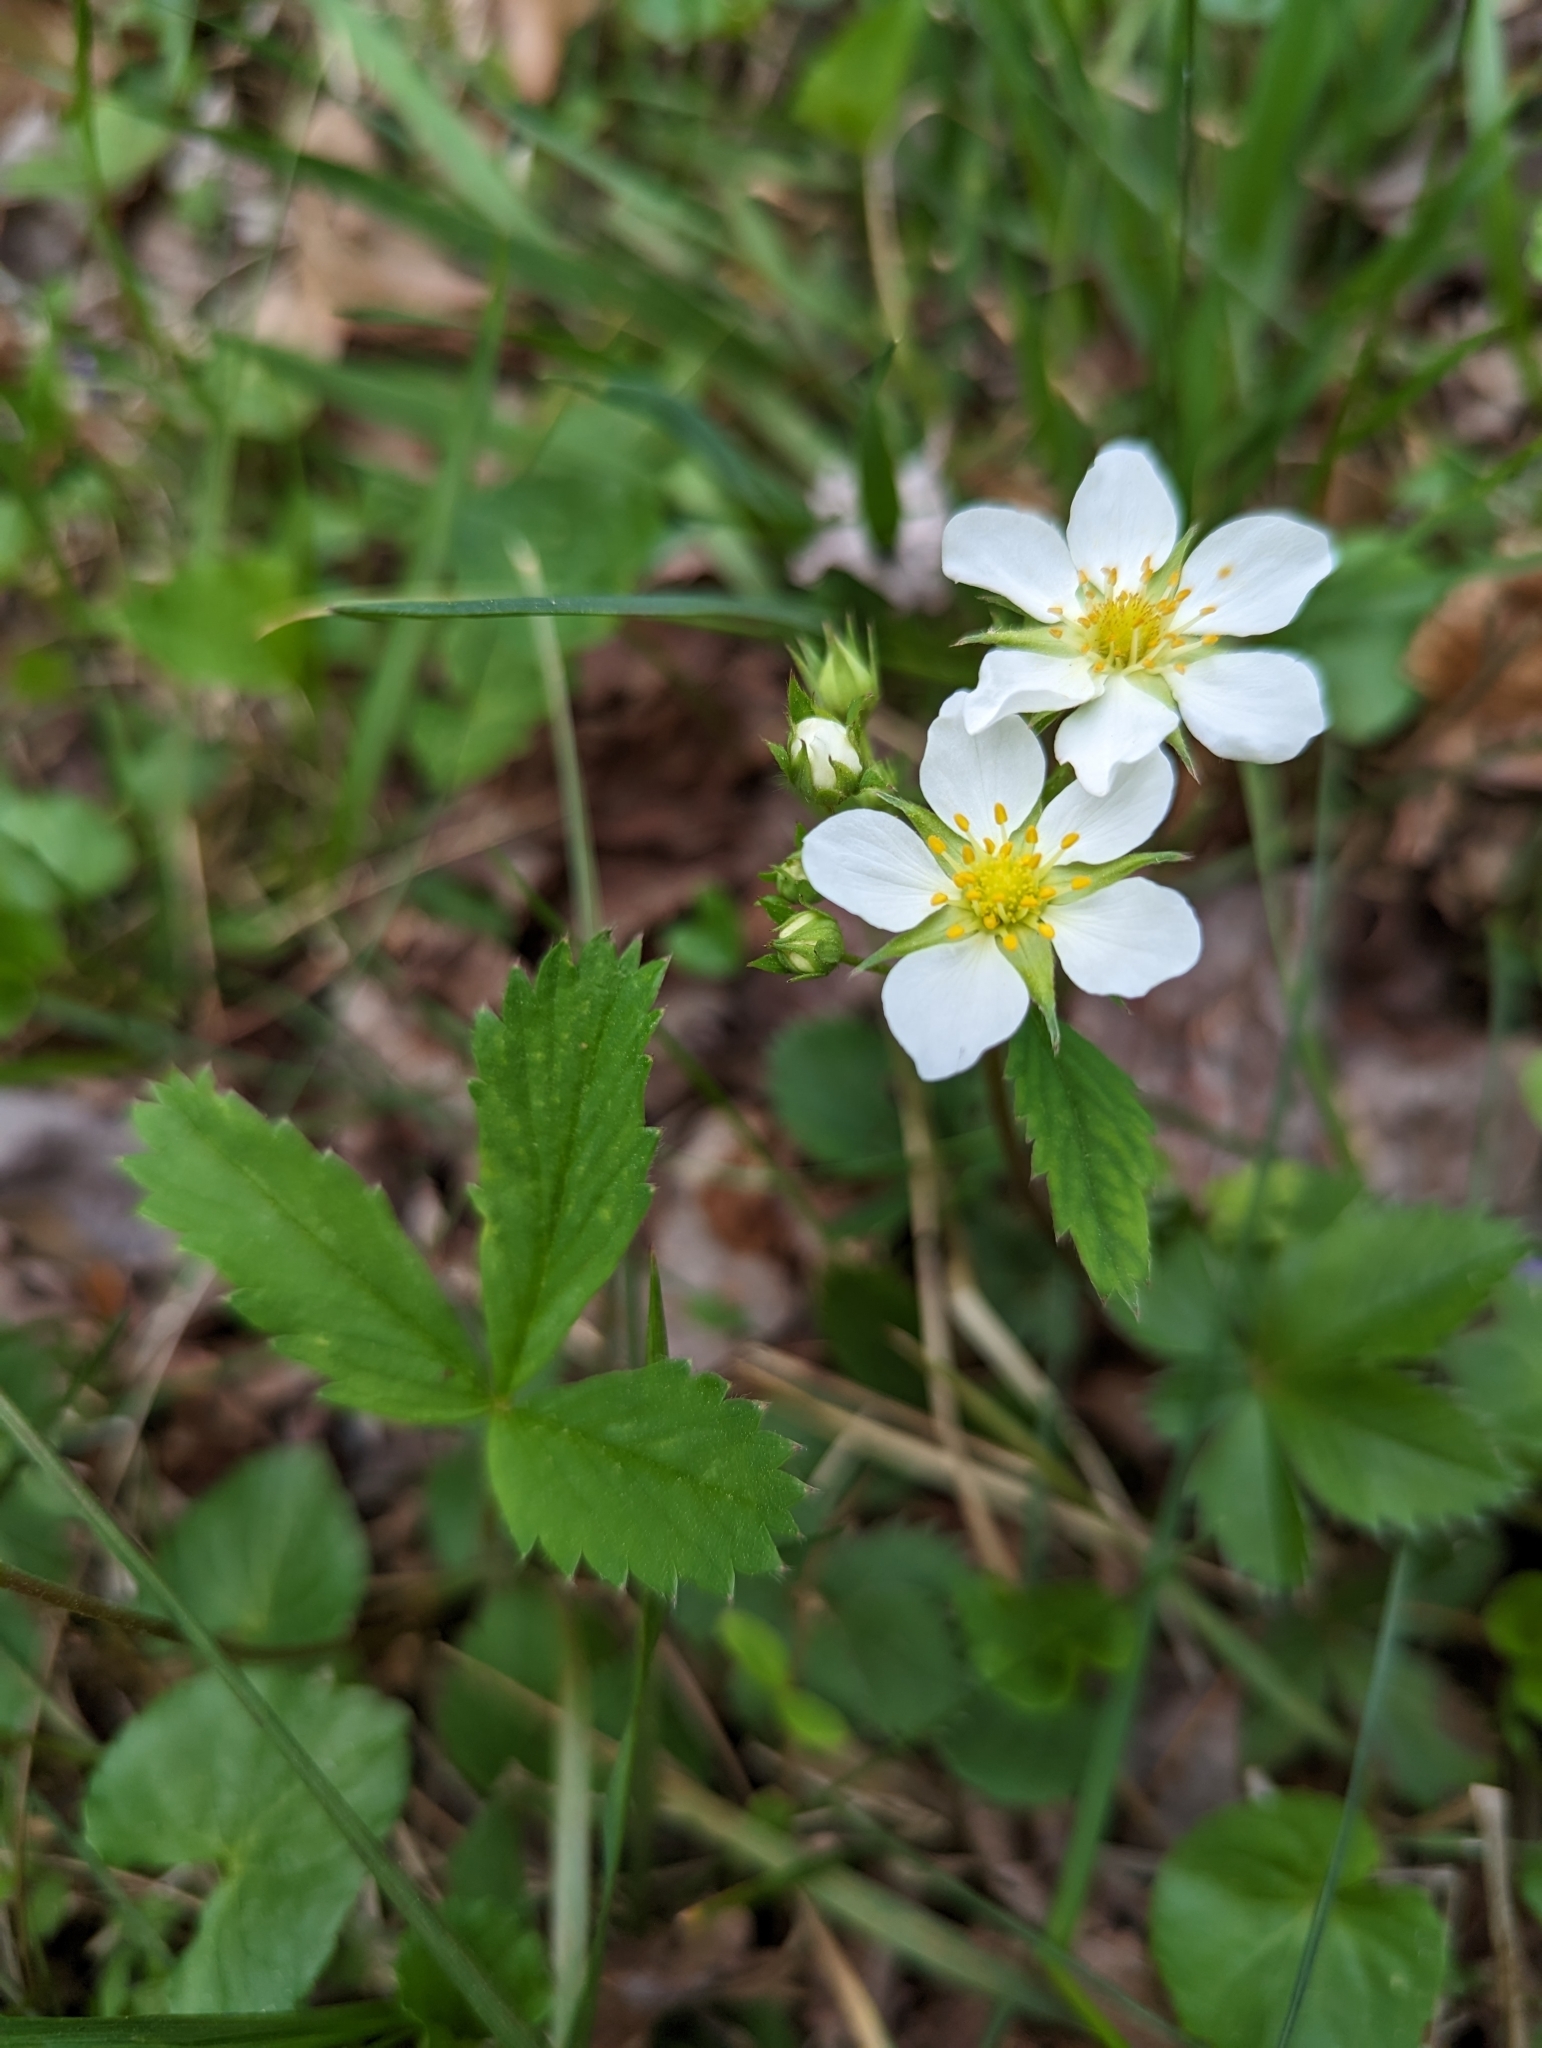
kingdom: Plantae
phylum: Tracheophyta
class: Magnoliopsida
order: Rosales
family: Rosaceae
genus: Fragaria
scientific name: Fragaria virginiana
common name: Thickleaved wild strawberry
